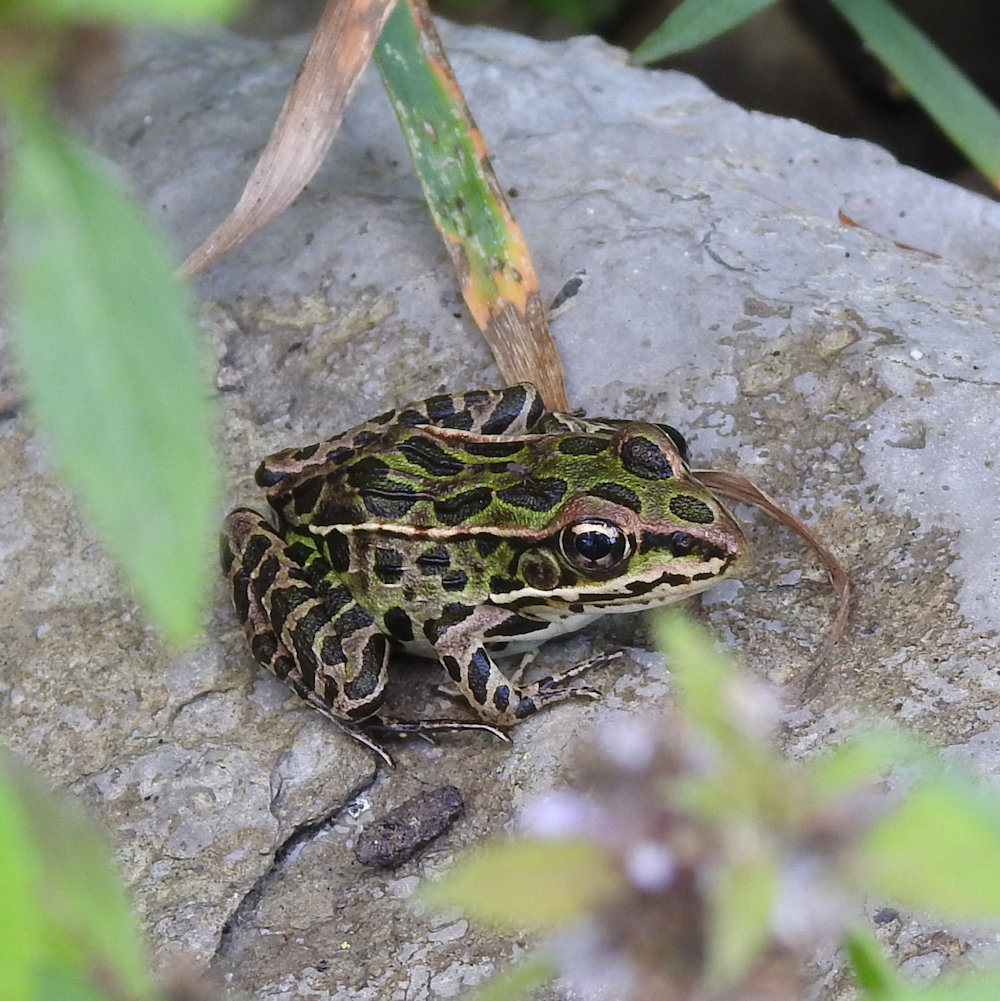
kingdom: Animalia
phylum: Chordata
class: Amphibia
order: Anura
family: Ranidae
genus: Lithobates
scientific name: Lithobates pipiens
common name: Northern leopard frog
